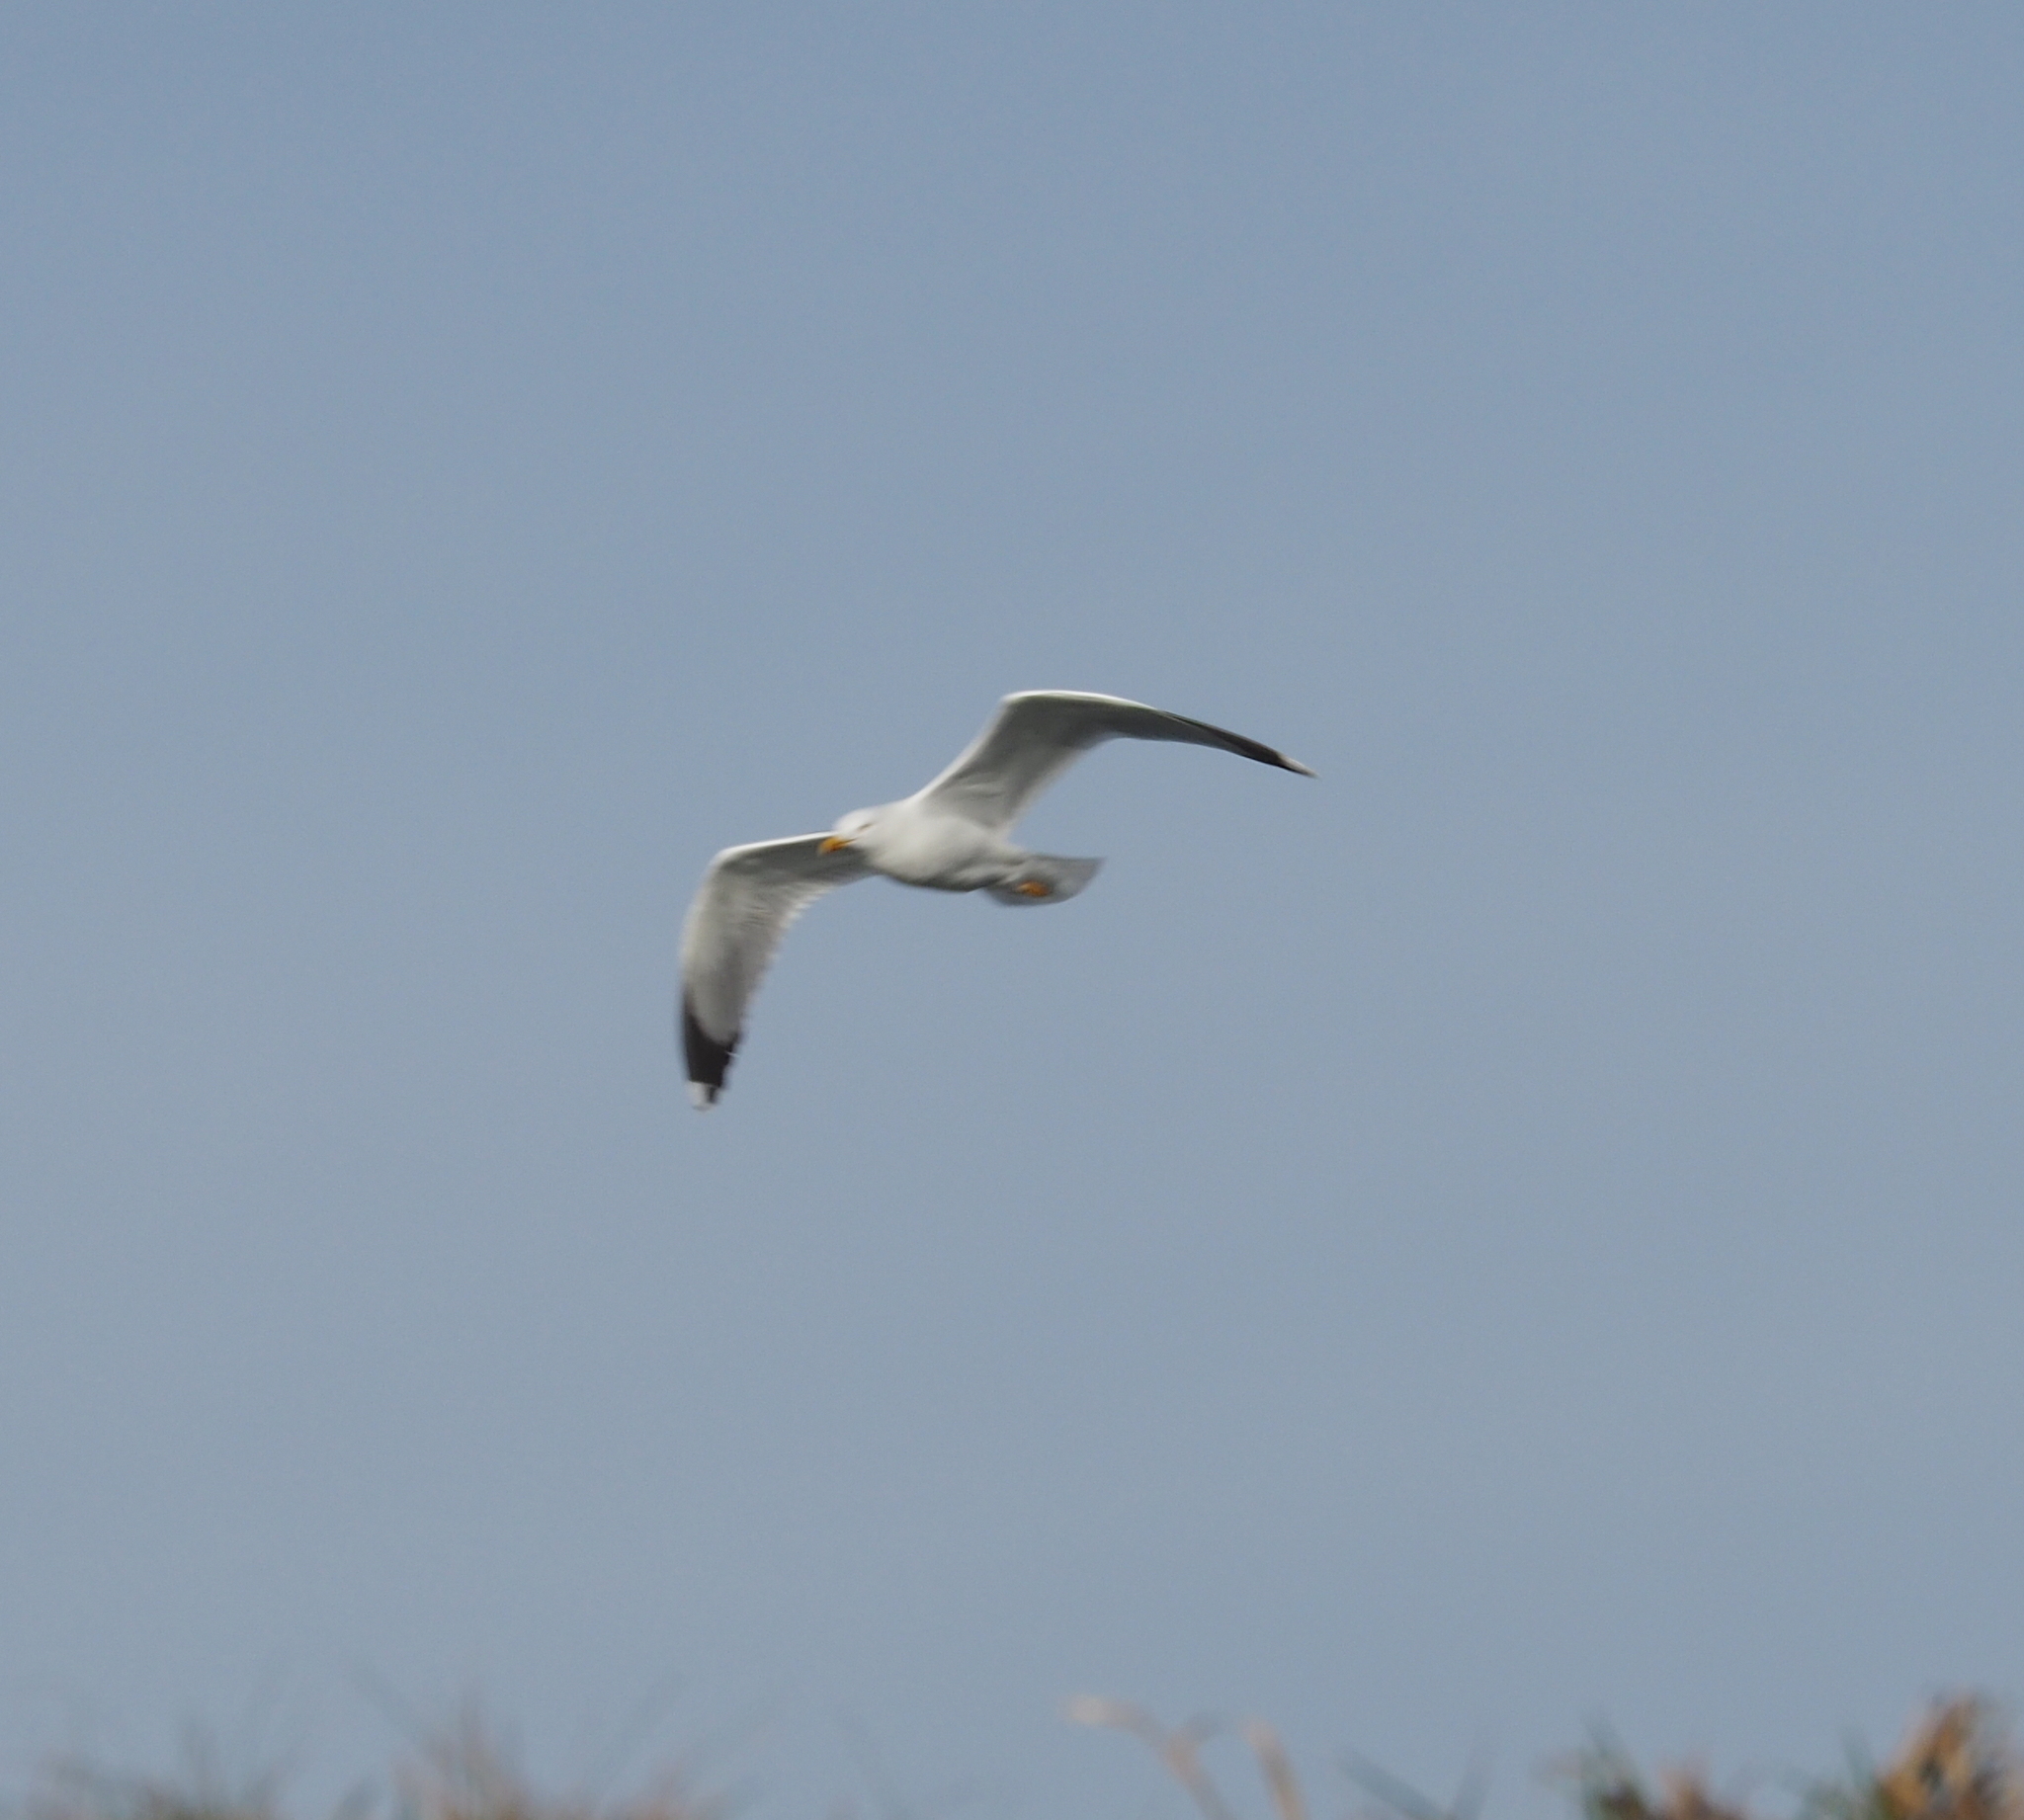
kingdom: Animalia
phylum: Chordata
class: Aves
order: Charadriiformes
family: Laridae
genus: Larus
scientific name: Larus michahellis
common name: Yellow-legged gull
